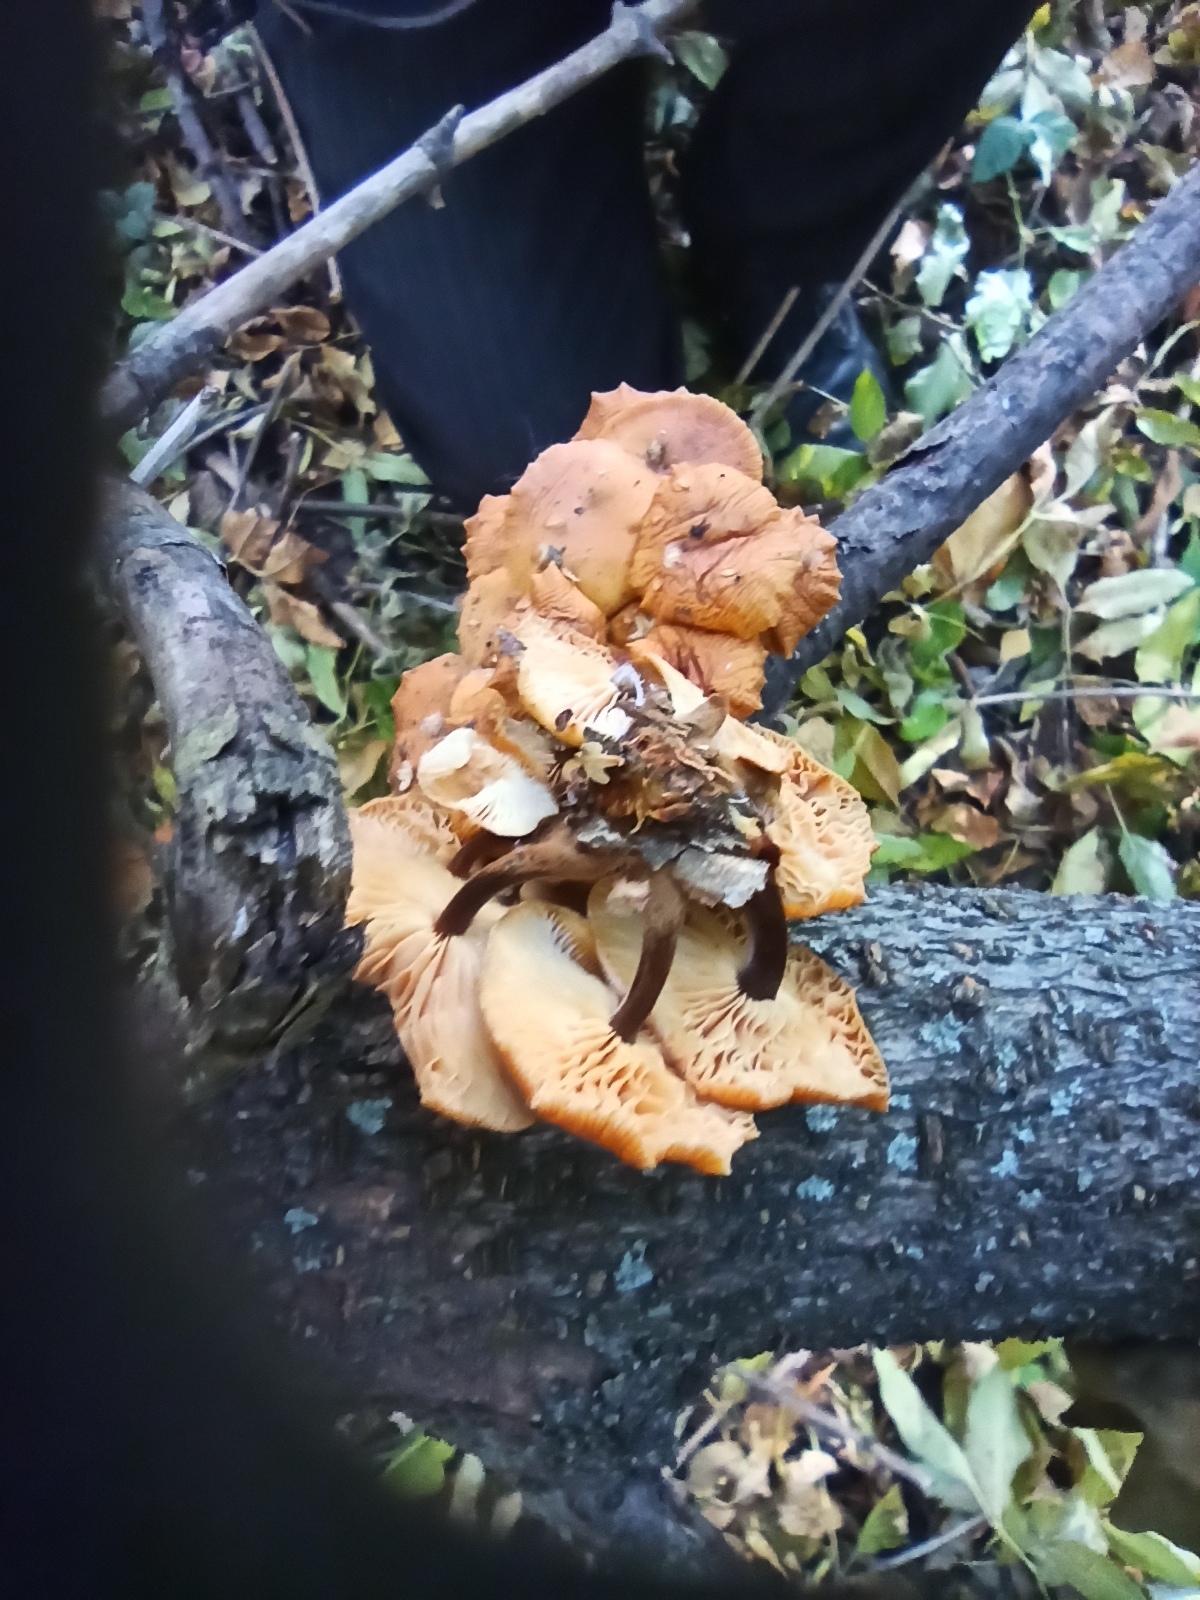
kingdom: Fungi
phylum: Basidiomycota
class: Agaricomycetes
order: Agaricales
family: Physalacriaceae
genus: Flammulina
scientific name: Flammulina
